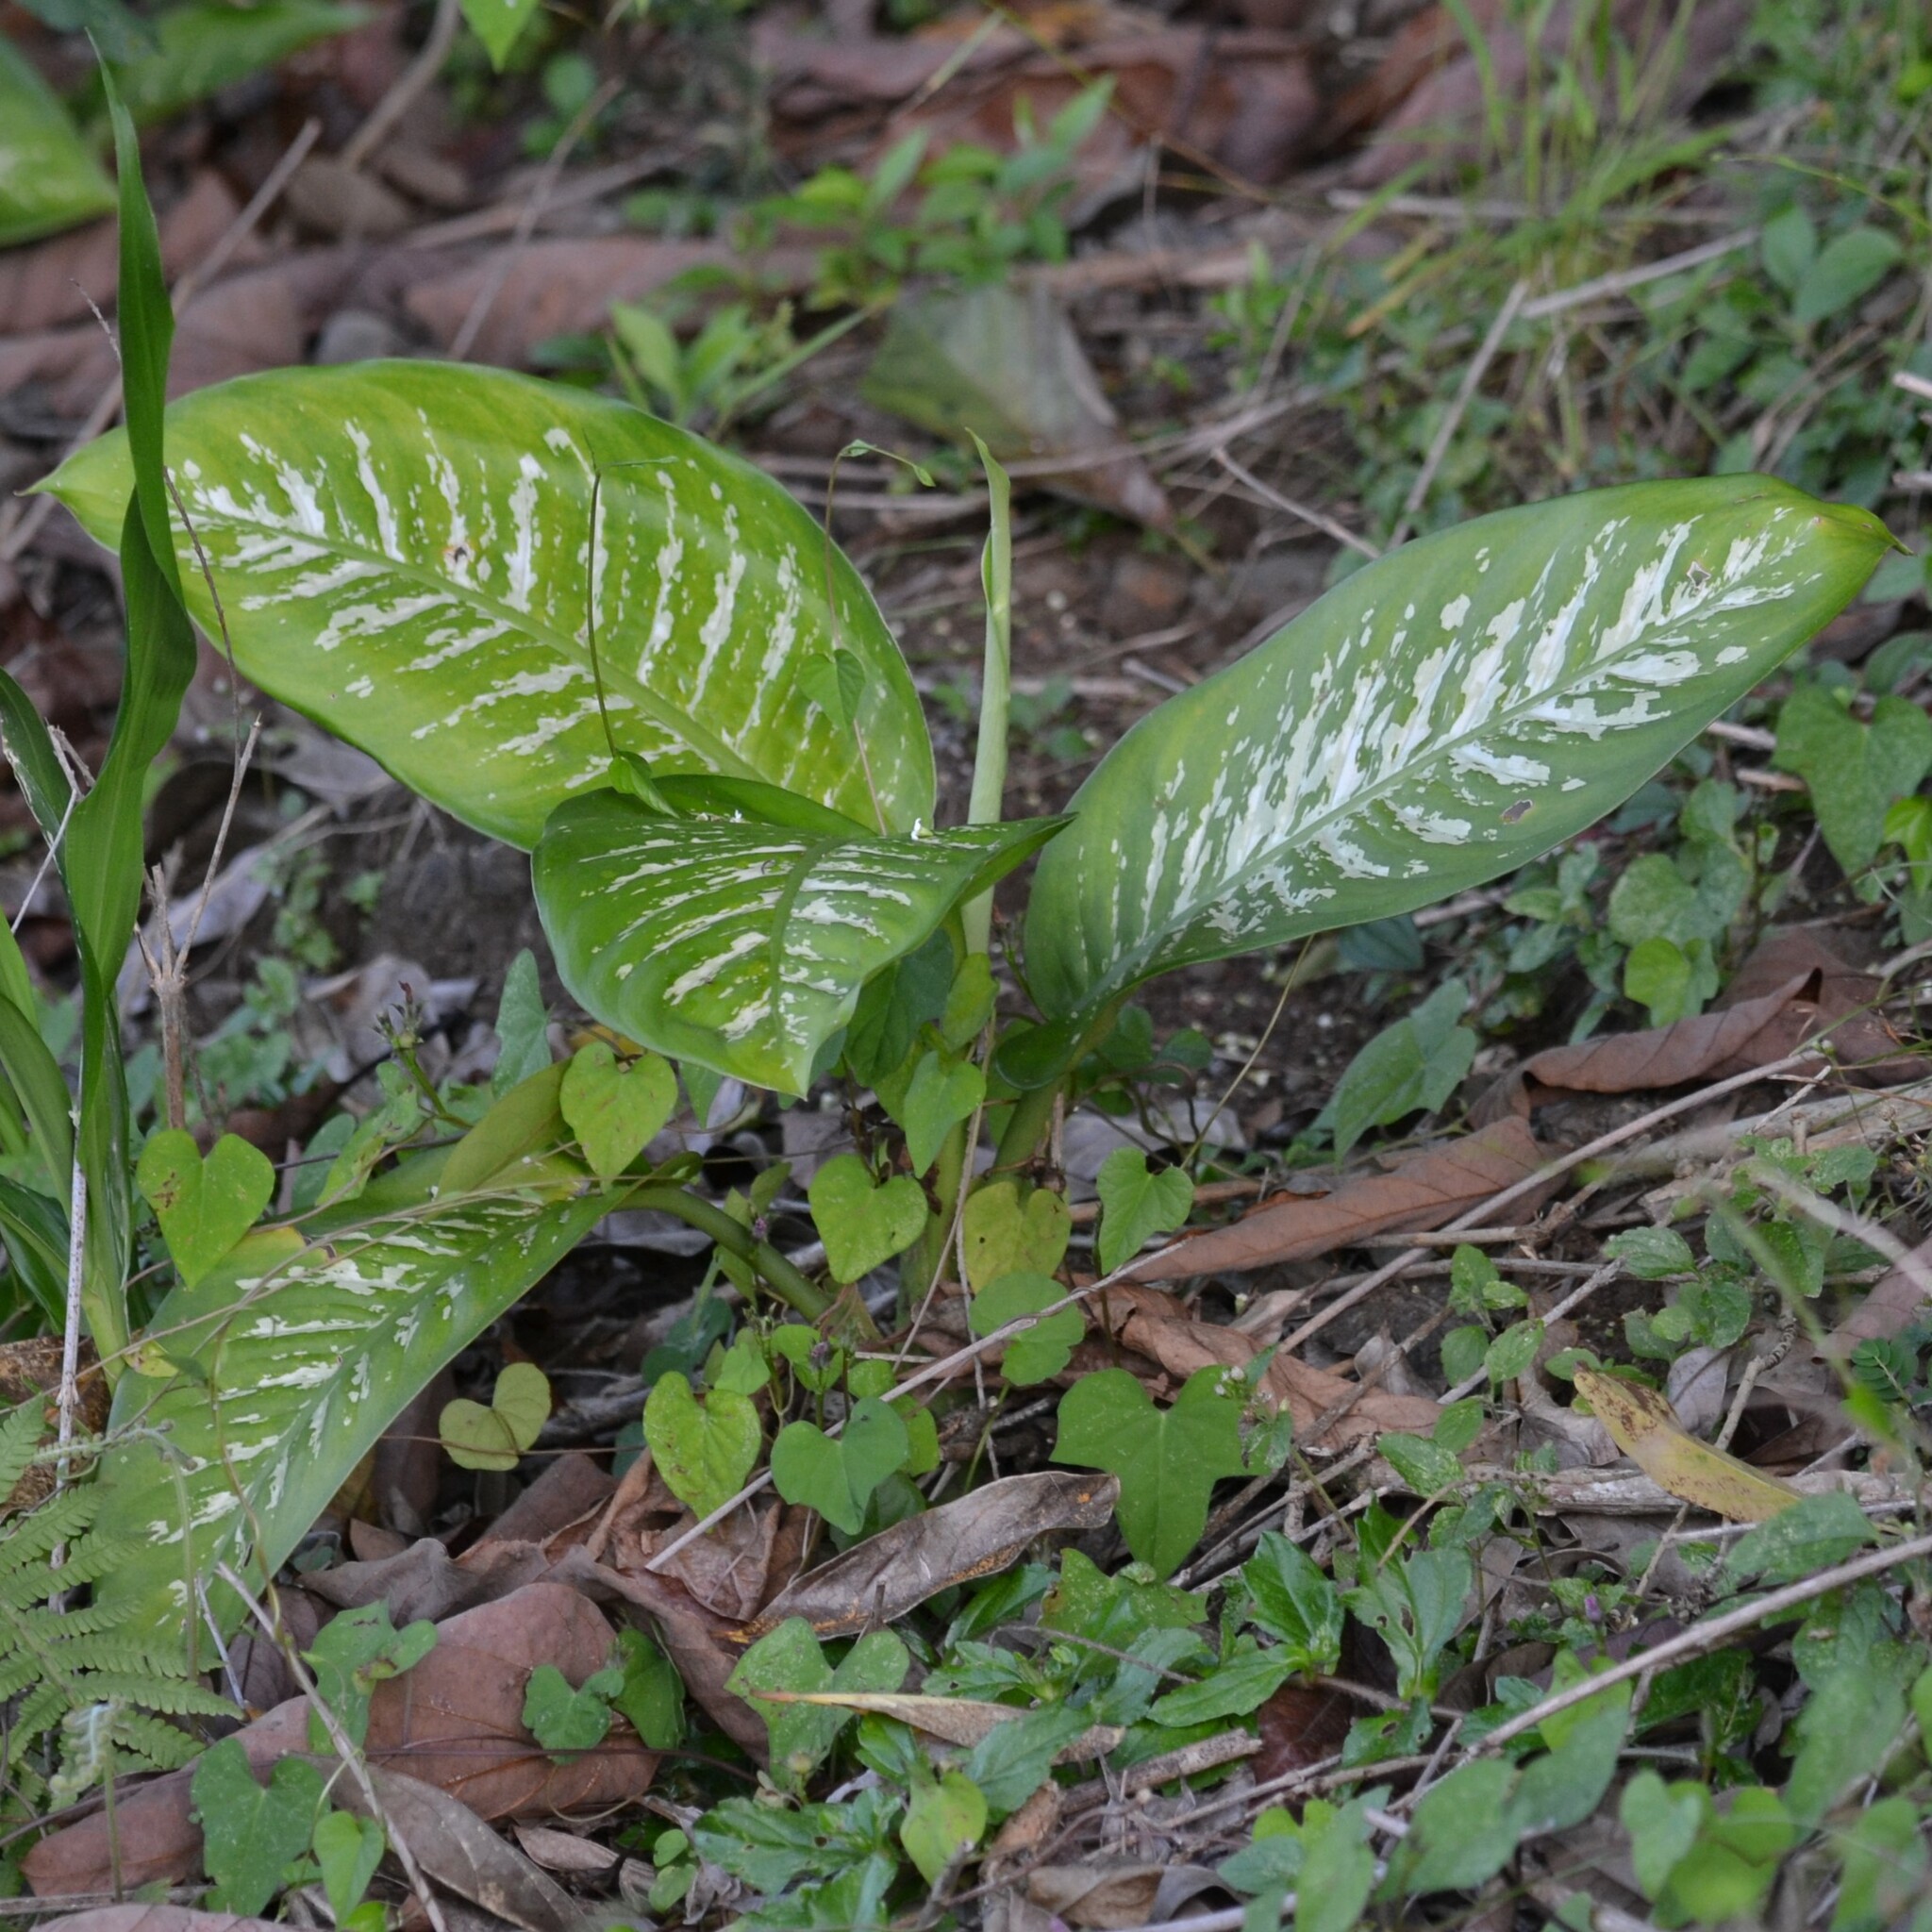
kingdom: Plantae
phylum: Tracheophyta
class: Liliopsida
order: Alismatales
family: Araceae
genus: Dieffenbachia
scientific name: Dieffenbachia seguine
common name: Dumbcane
